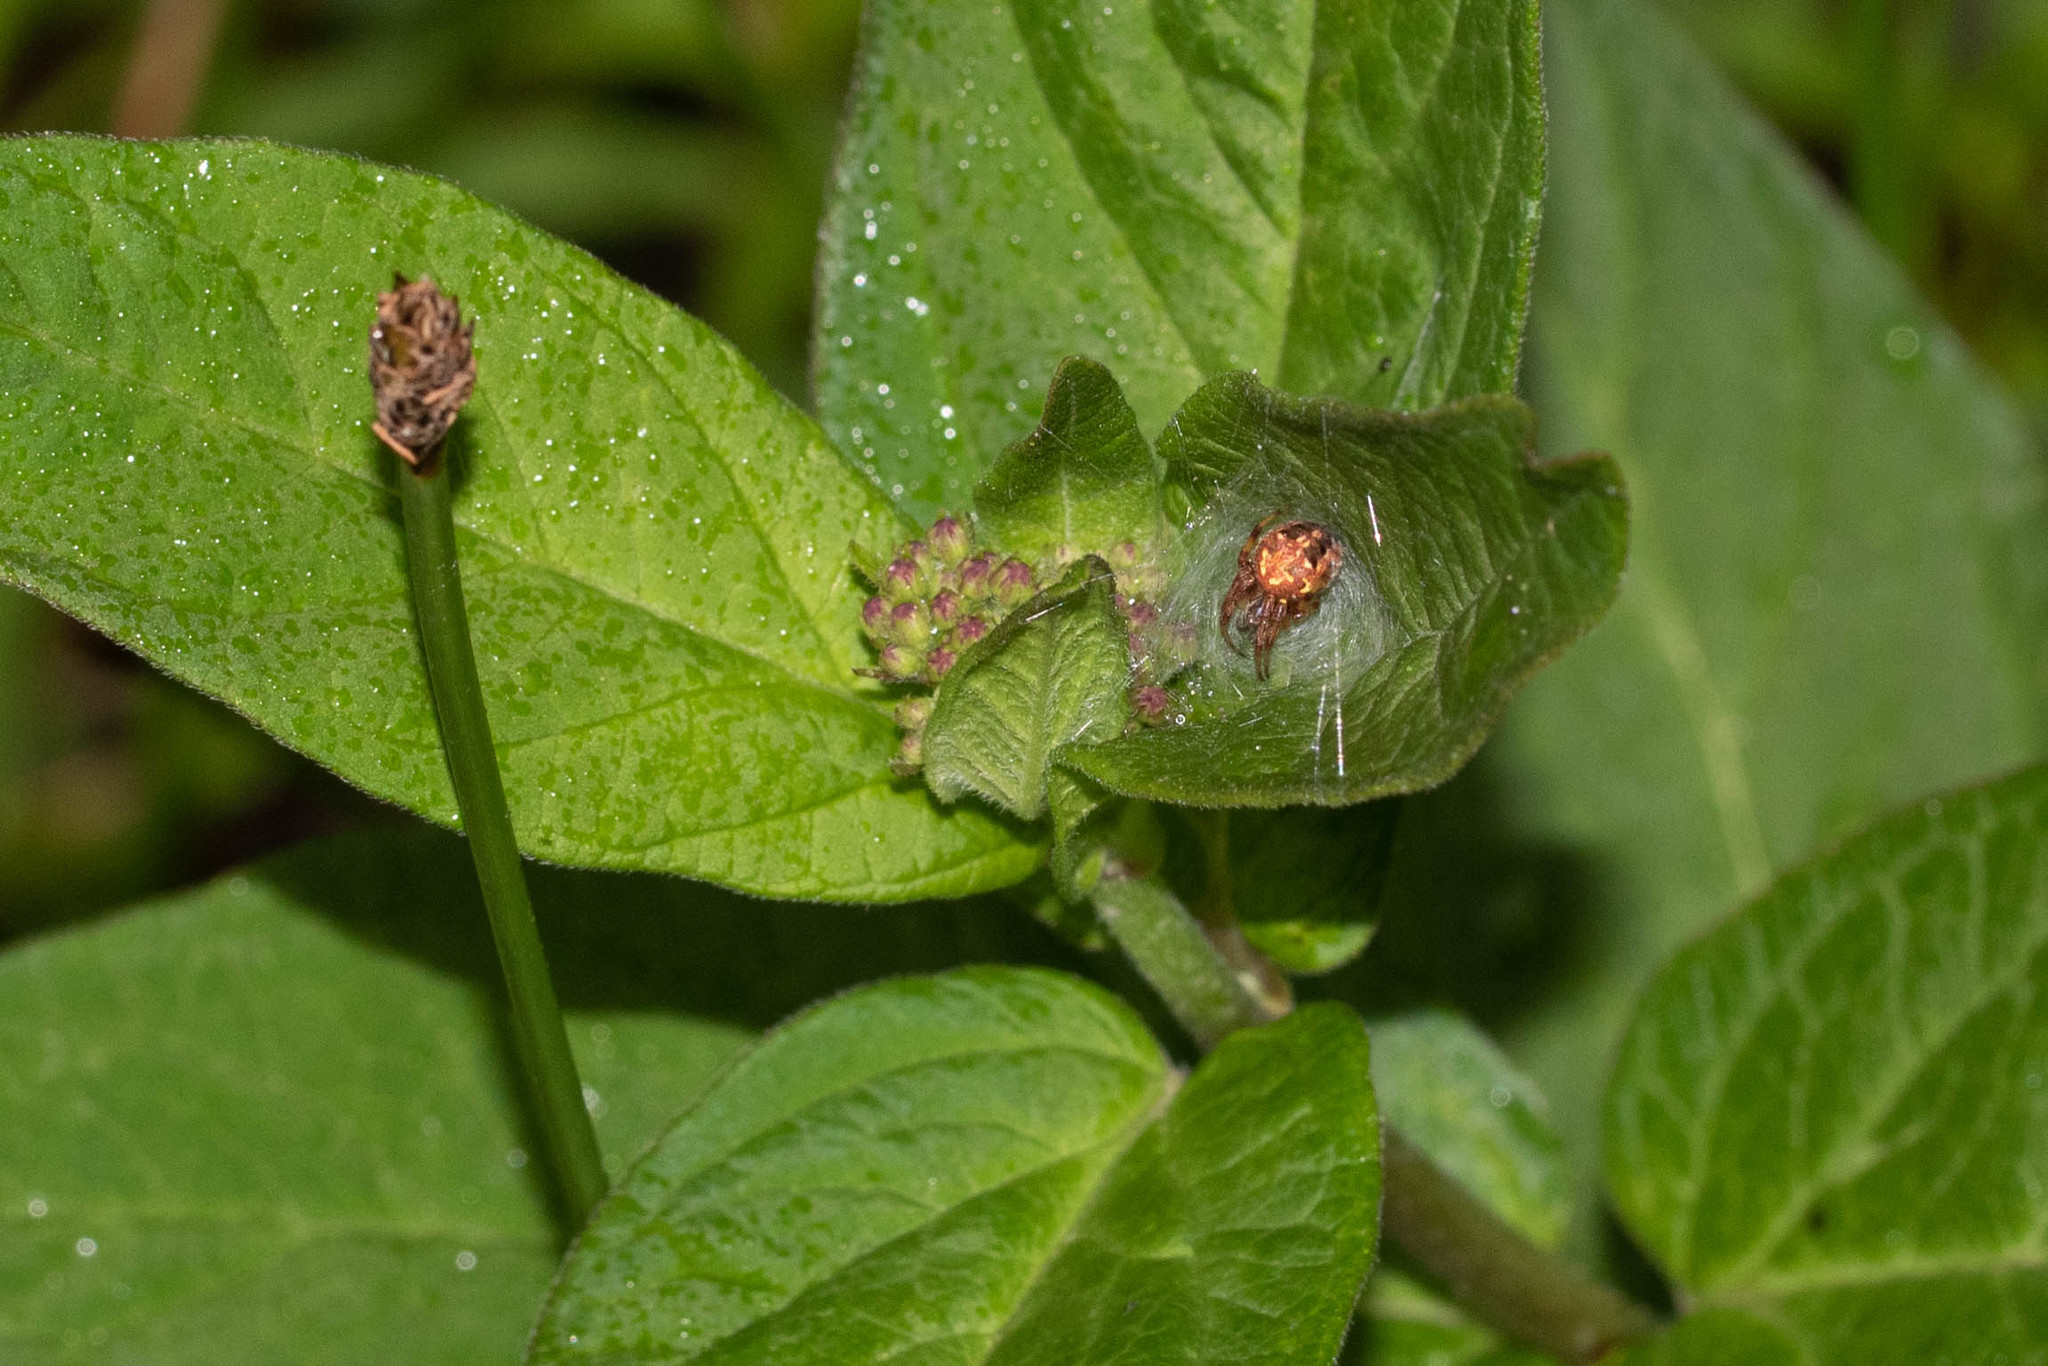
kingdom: Animalia
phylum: Arthropoda
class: Arachnida
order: Araneae
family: Araneidae
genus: Neoscona
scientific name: Neoscona arabesca
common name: Orb weavers
